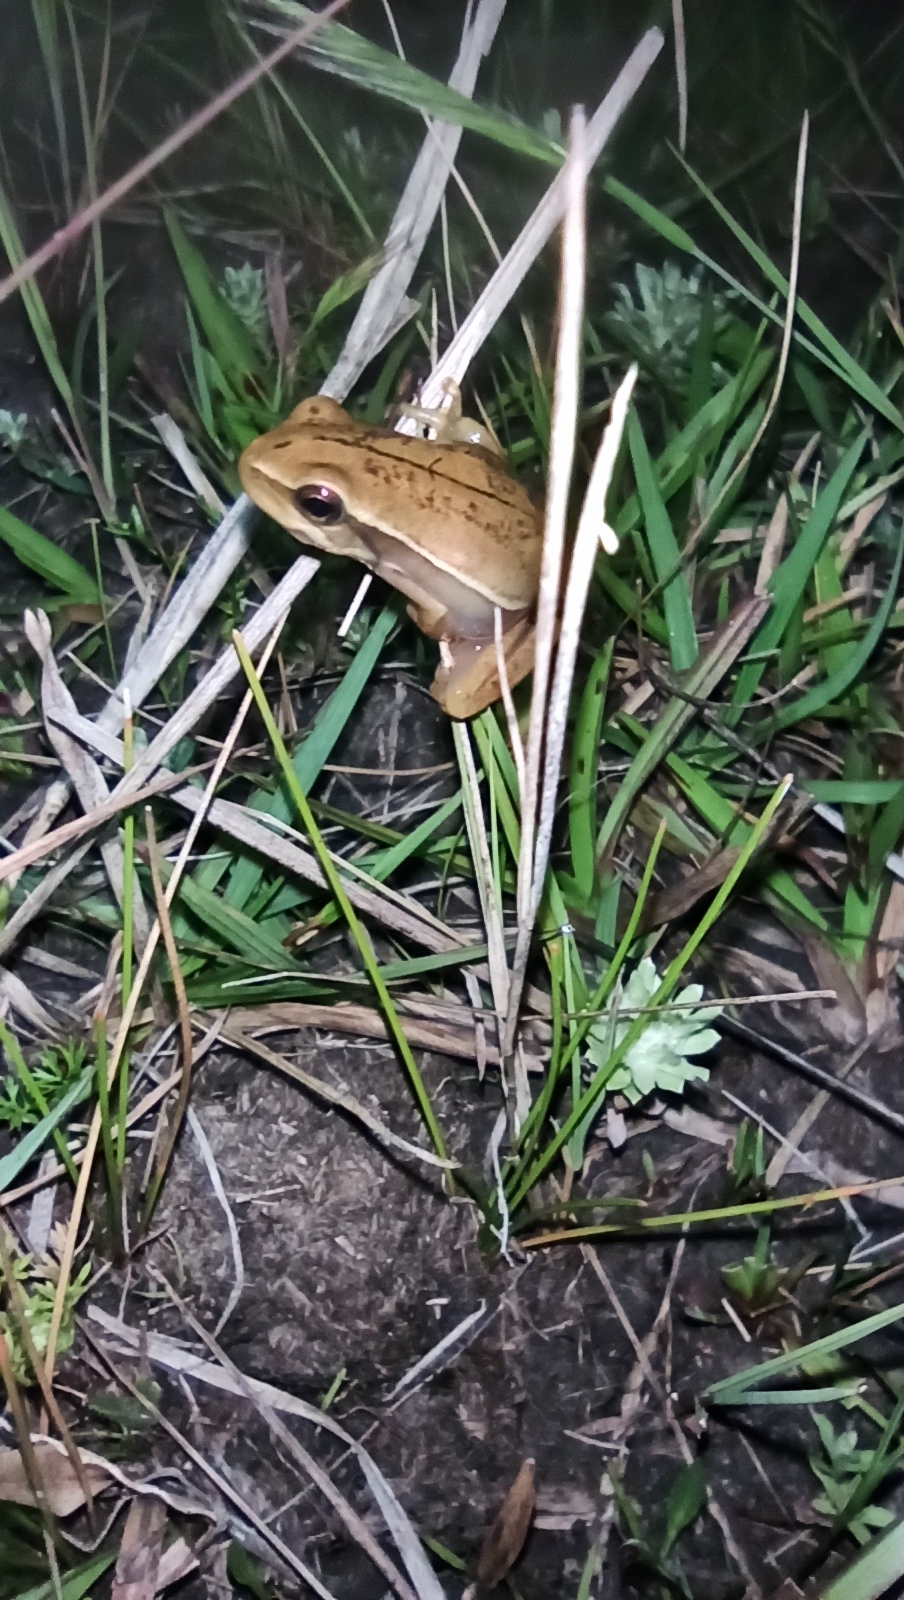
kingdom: Animalia
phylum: Chordata
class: Amphibia
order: Anura
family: Hylidae
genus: Boana
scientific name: Boana pulchella
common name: Montevideo treefrog
